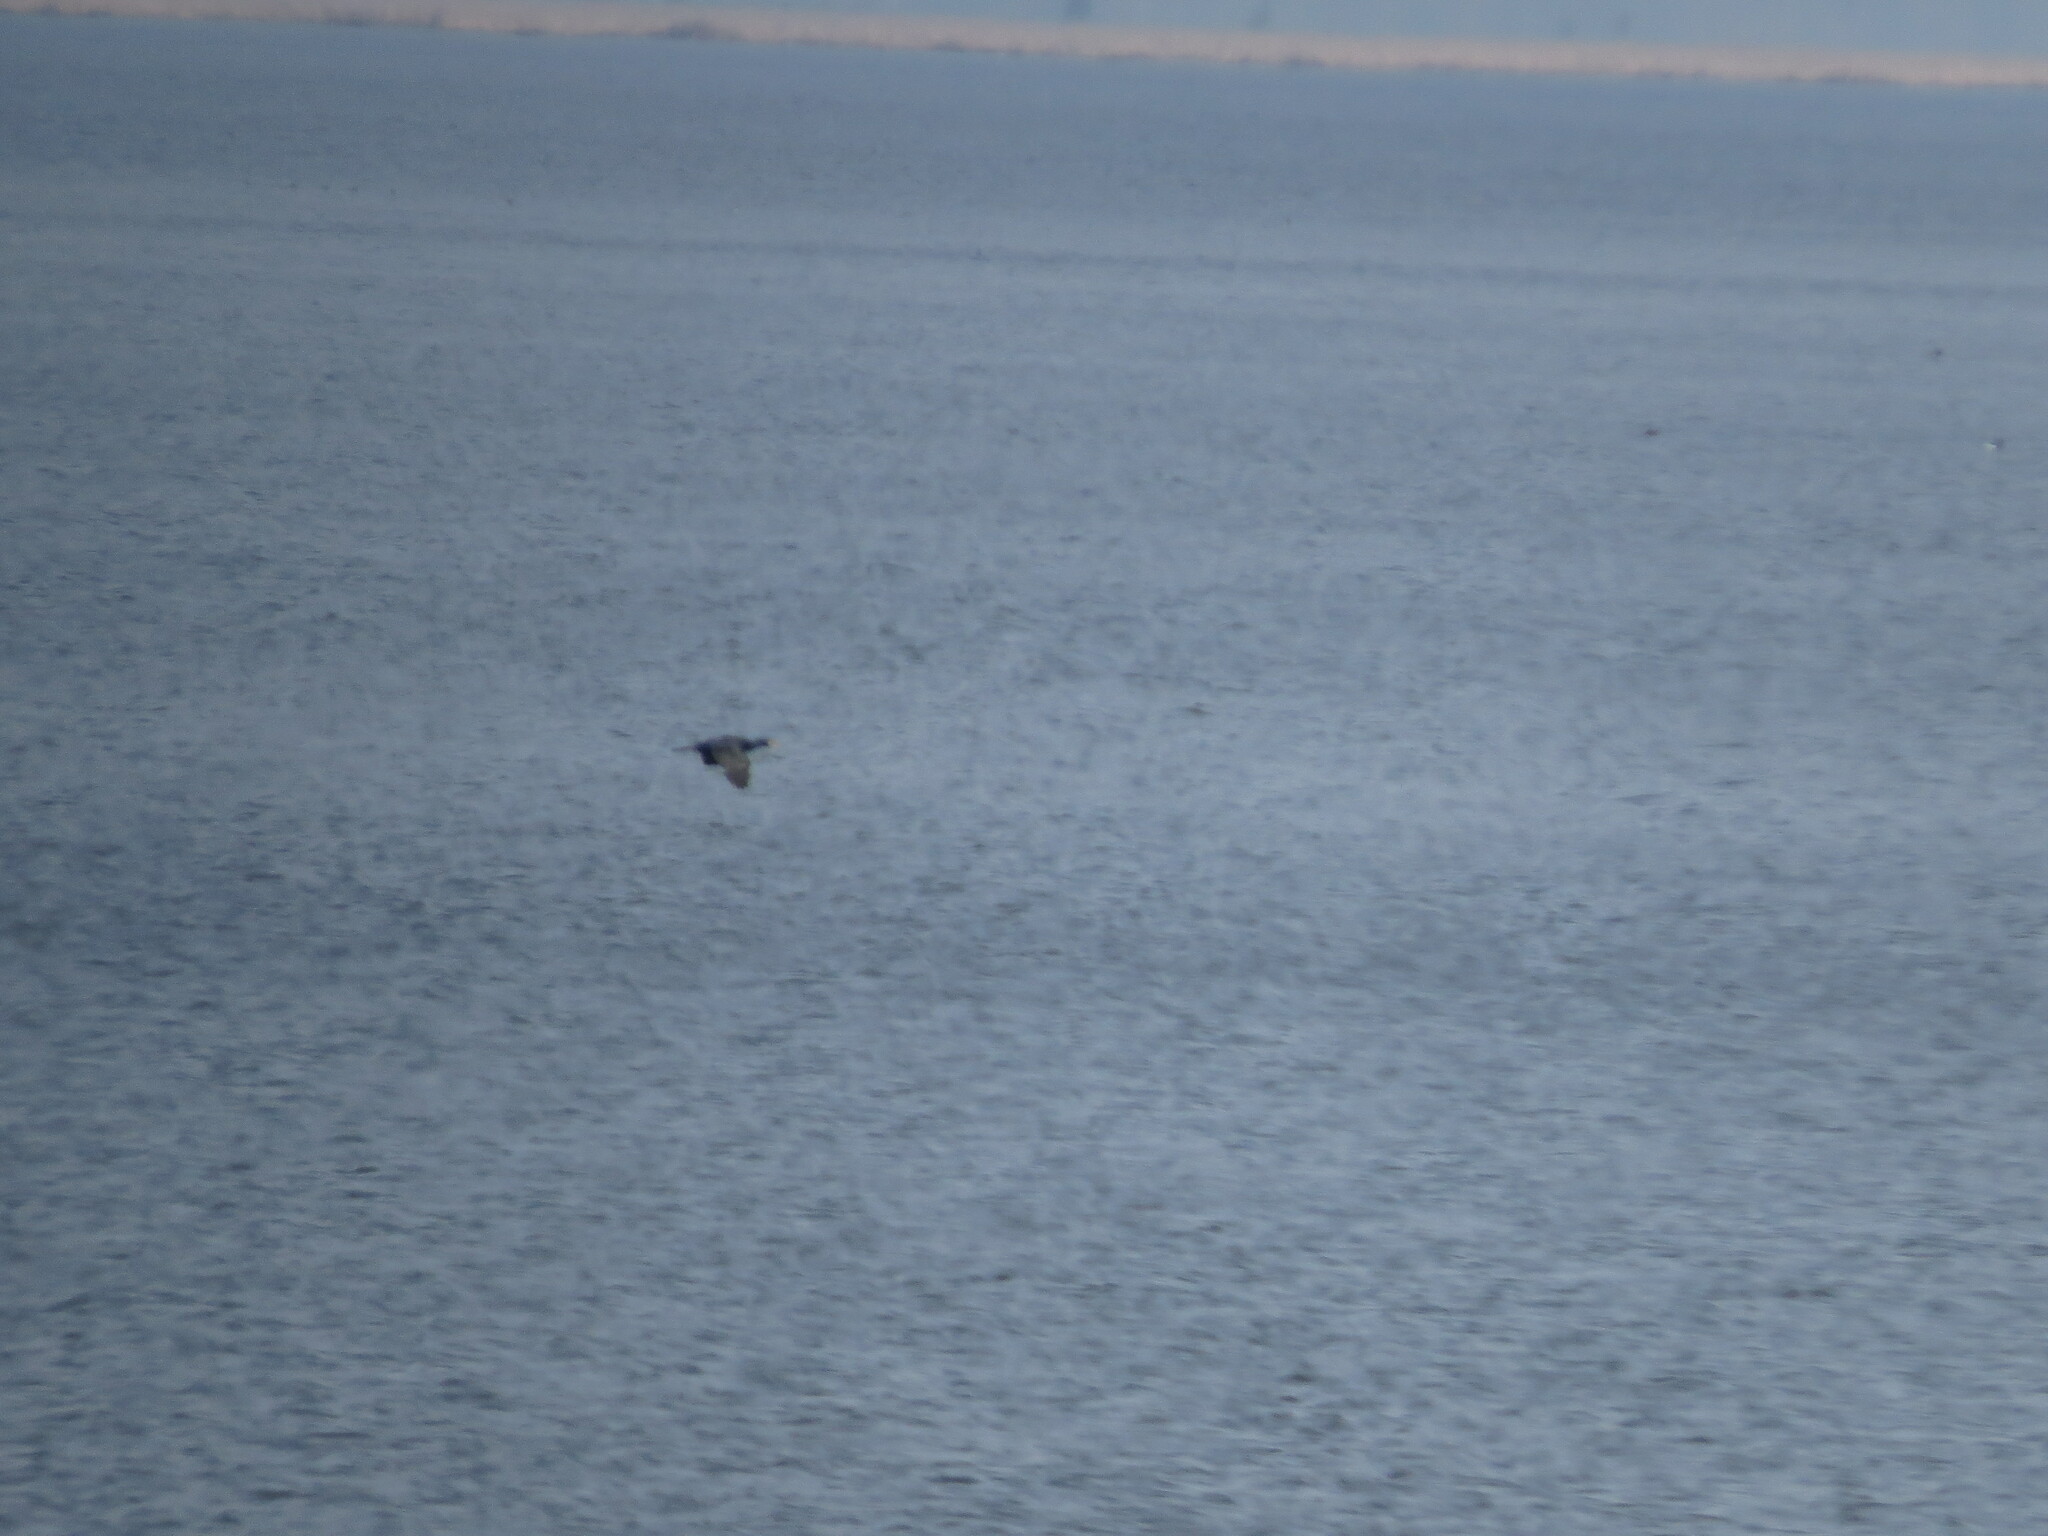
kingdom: Animalia
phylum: Chordata
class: Aves
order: Suliformes
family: Phalacrocoracidae
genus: Phalacrocorax
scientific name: Phalacrocorax carbo
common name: Great cormorant
